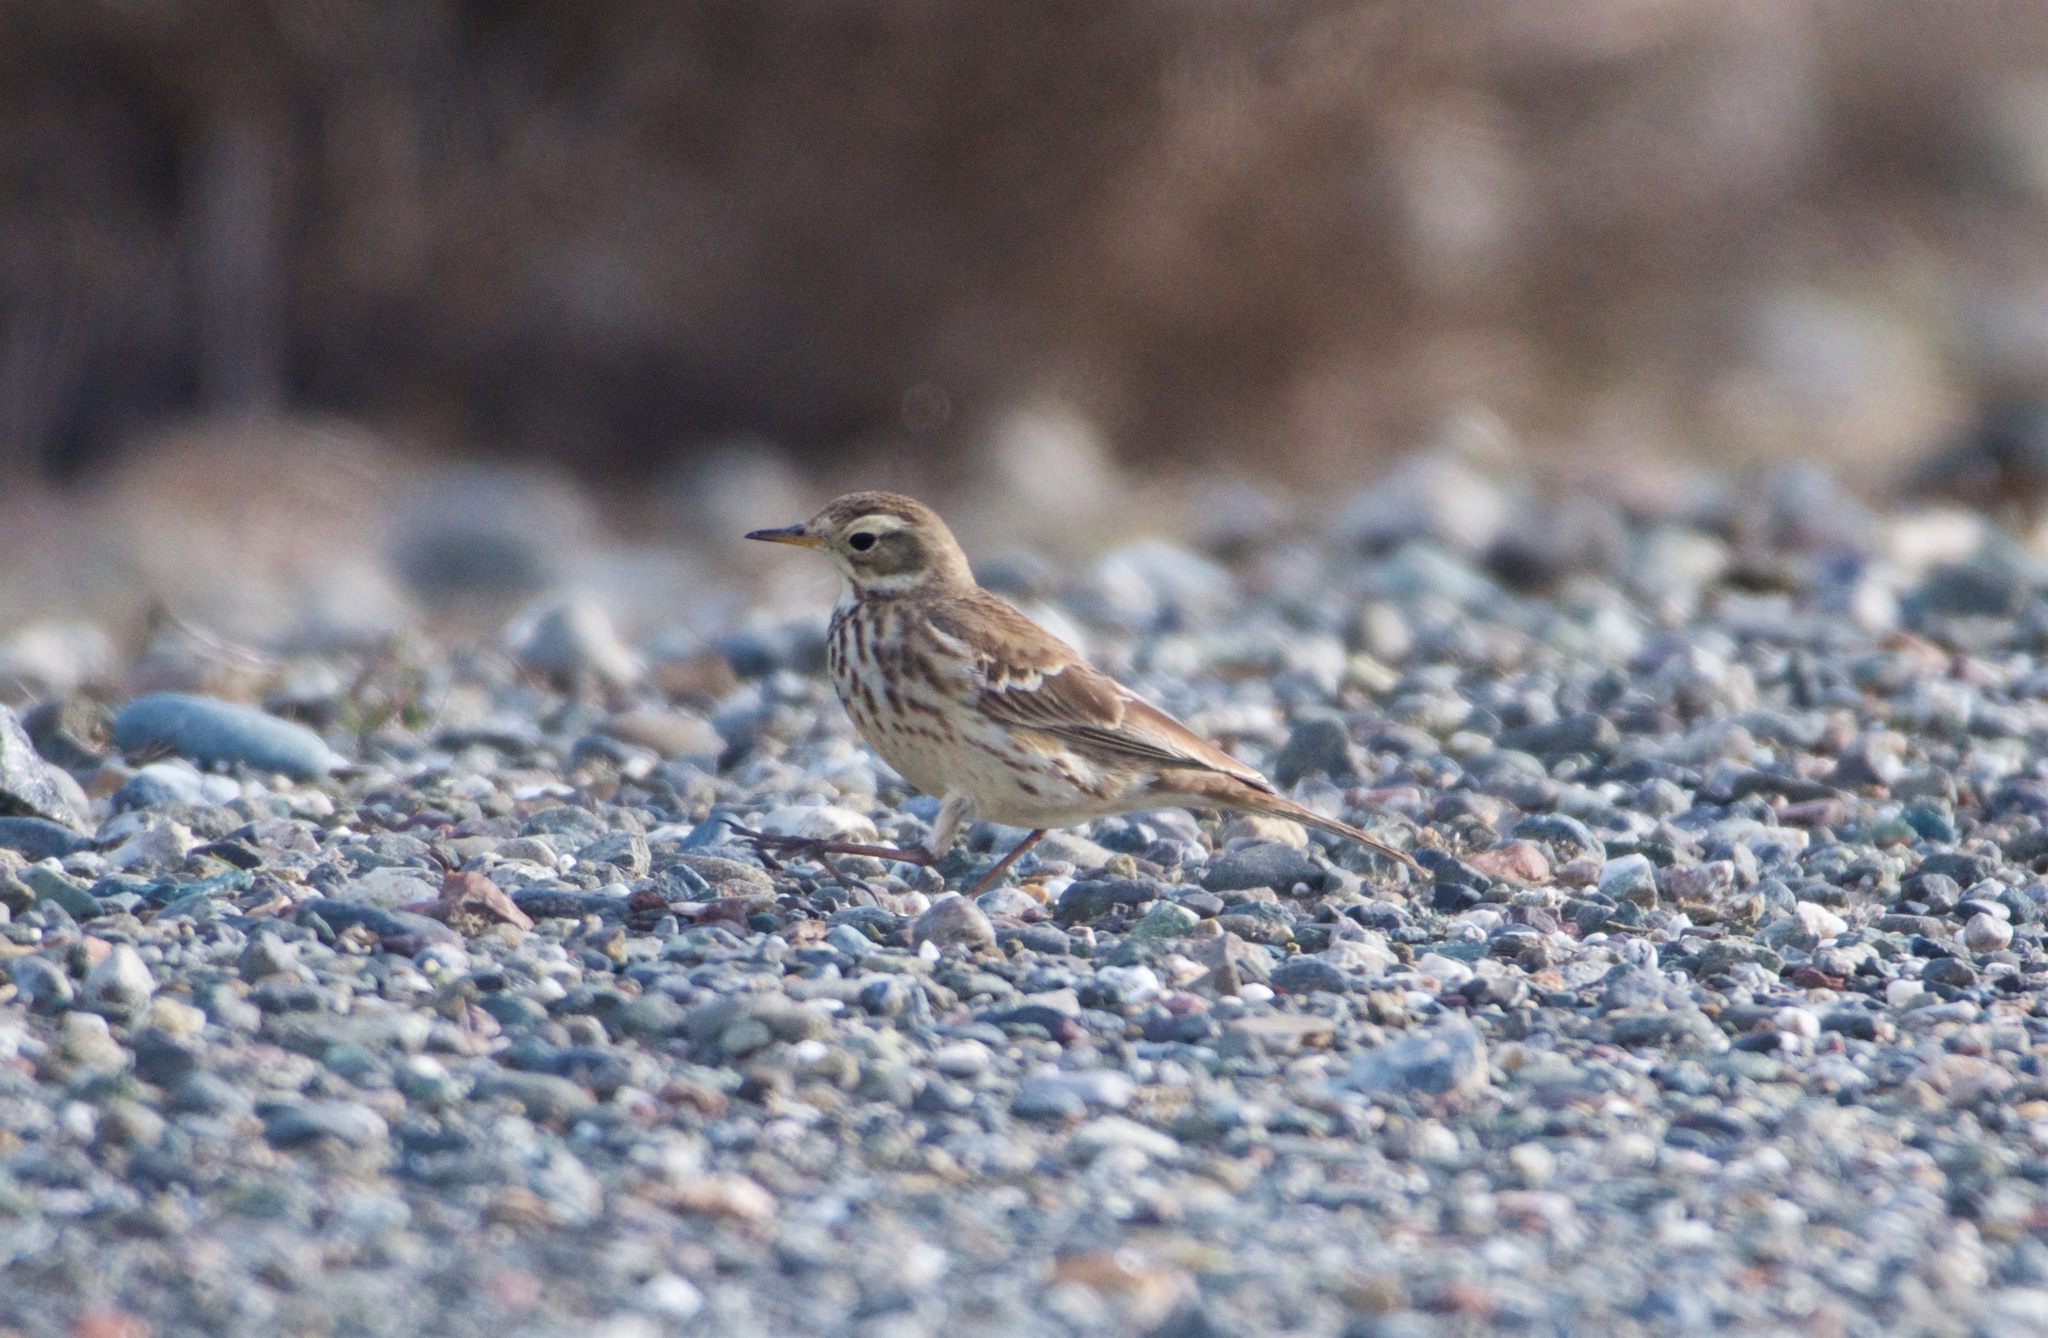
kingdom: Animalia
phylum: Chordata
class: Aves
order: Passeriformes
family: Motacillidae
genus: Anthus
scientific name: Anthus rubescens
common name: Buff-bellied pipit
